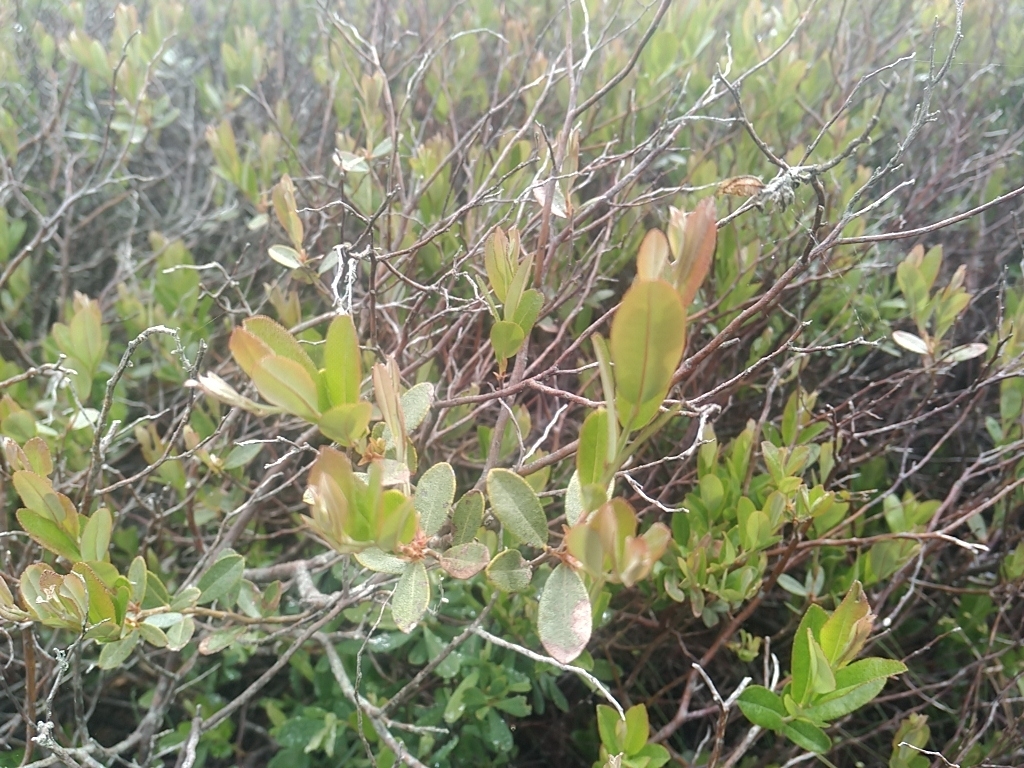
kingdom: Plantae
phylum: Tracheophyta
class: Magnoliopsida
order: Ericales
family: Ericaceae
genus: Chamaedaphne
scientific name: Chamaedaphne calyculata
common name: Leatherleaf
